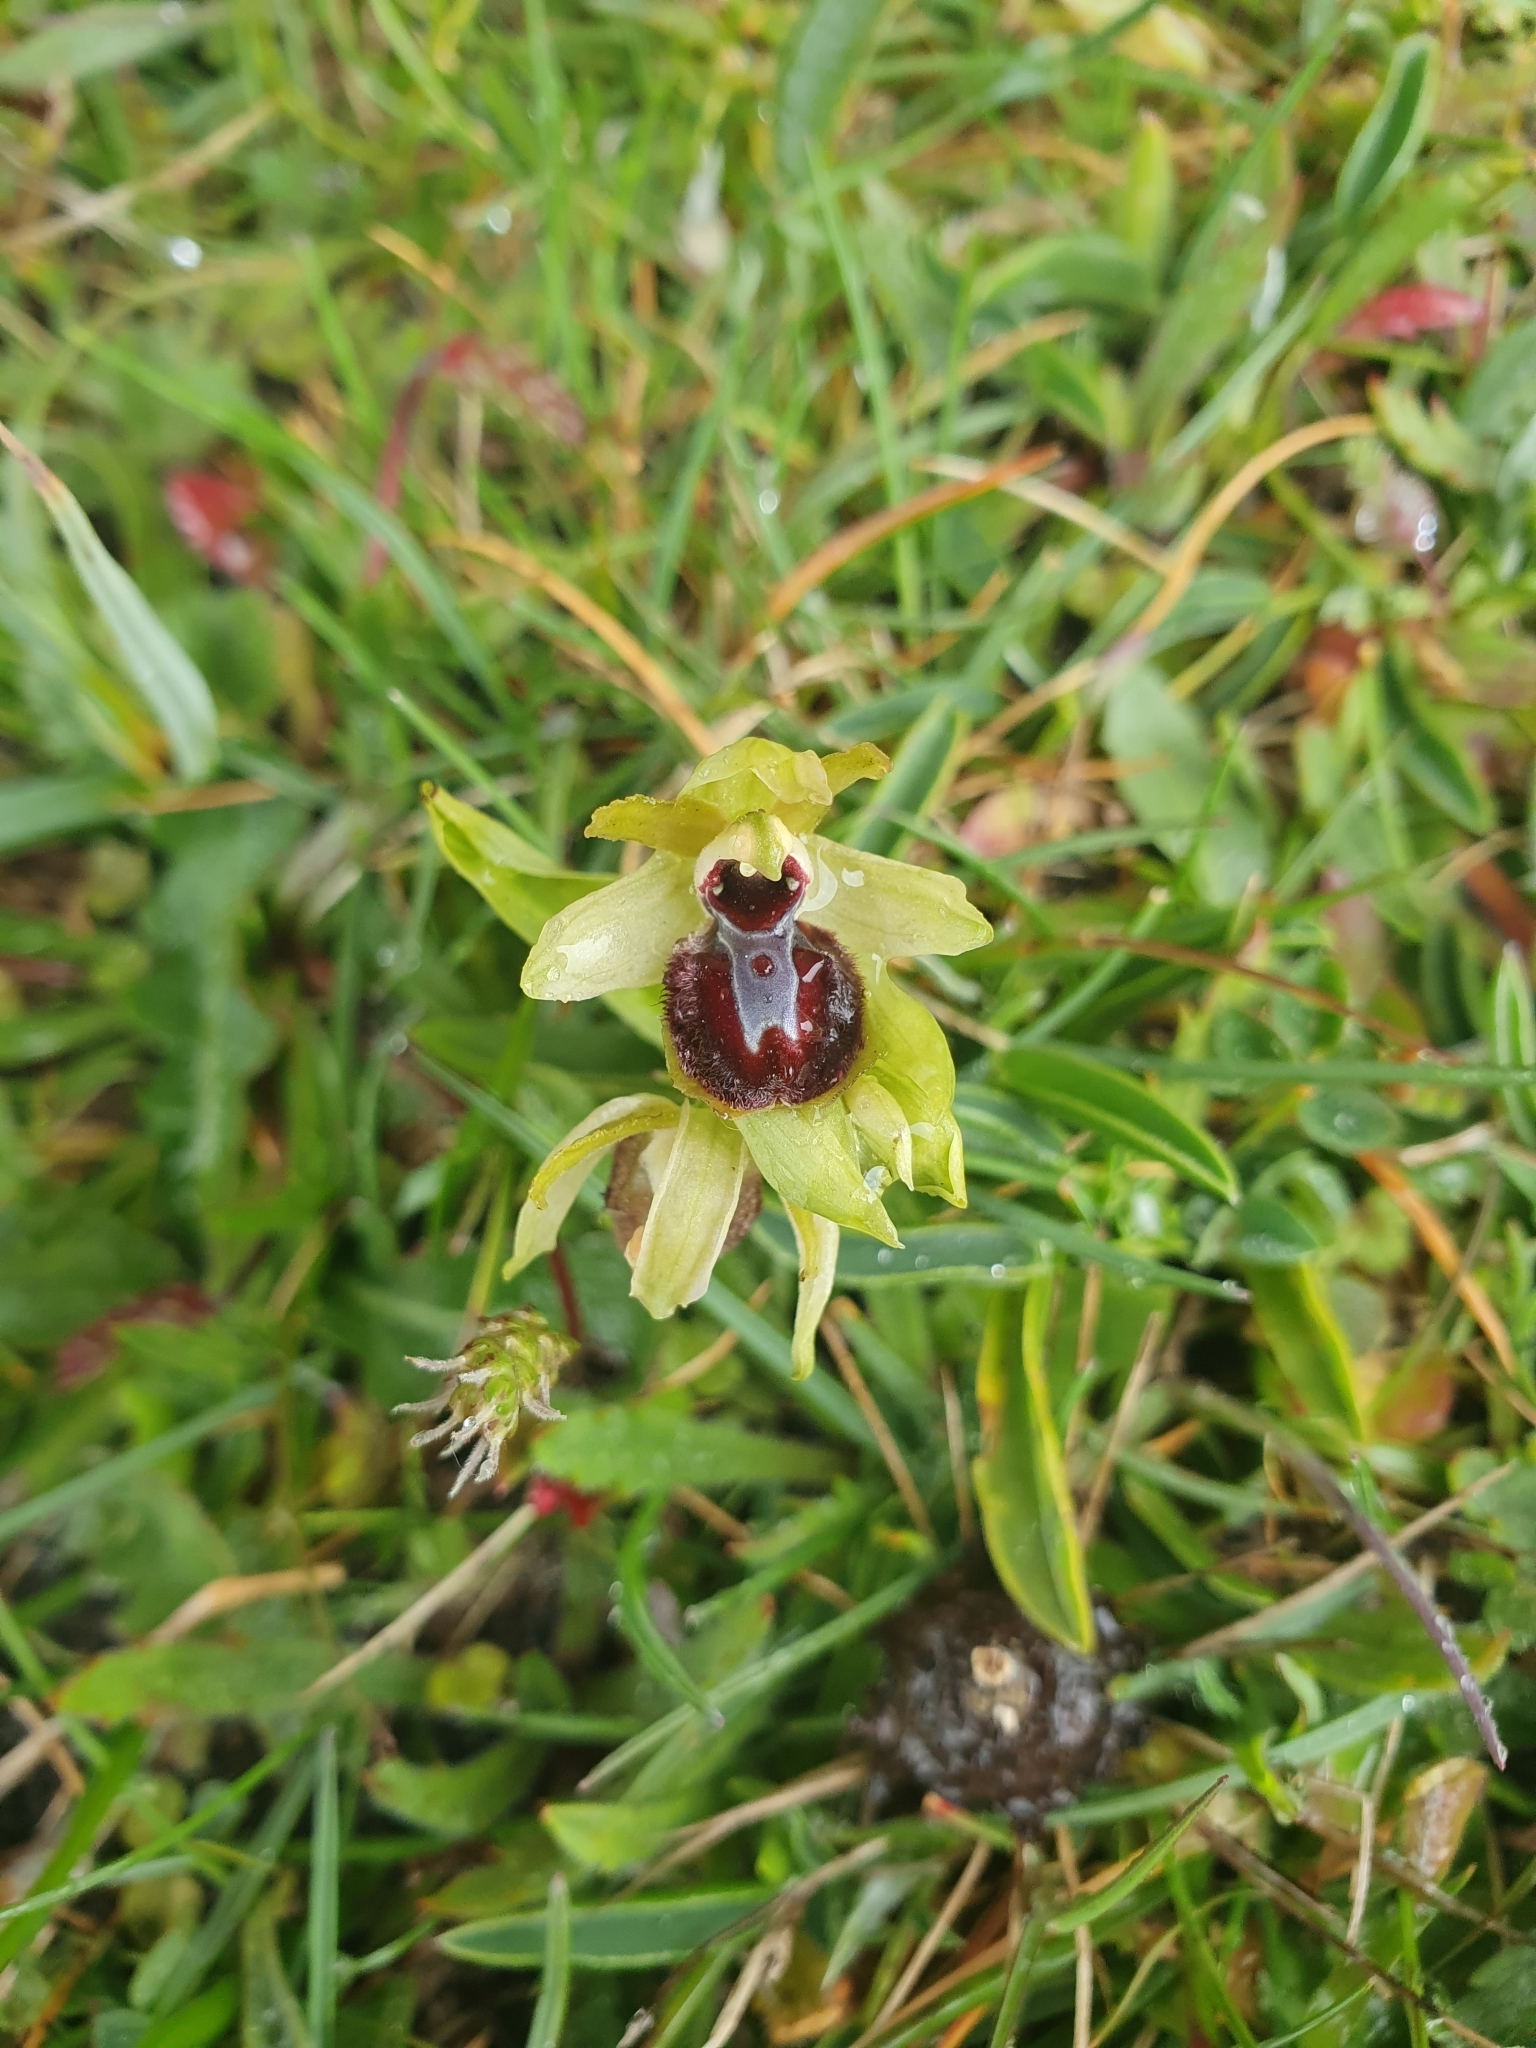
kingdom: Plantae
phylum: Tracheophyta
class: Liliopsida
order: Asparagales
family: Orchidaceae
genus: Ophrys
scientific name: Ophrys sphegodes
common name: Early spider-orchid
